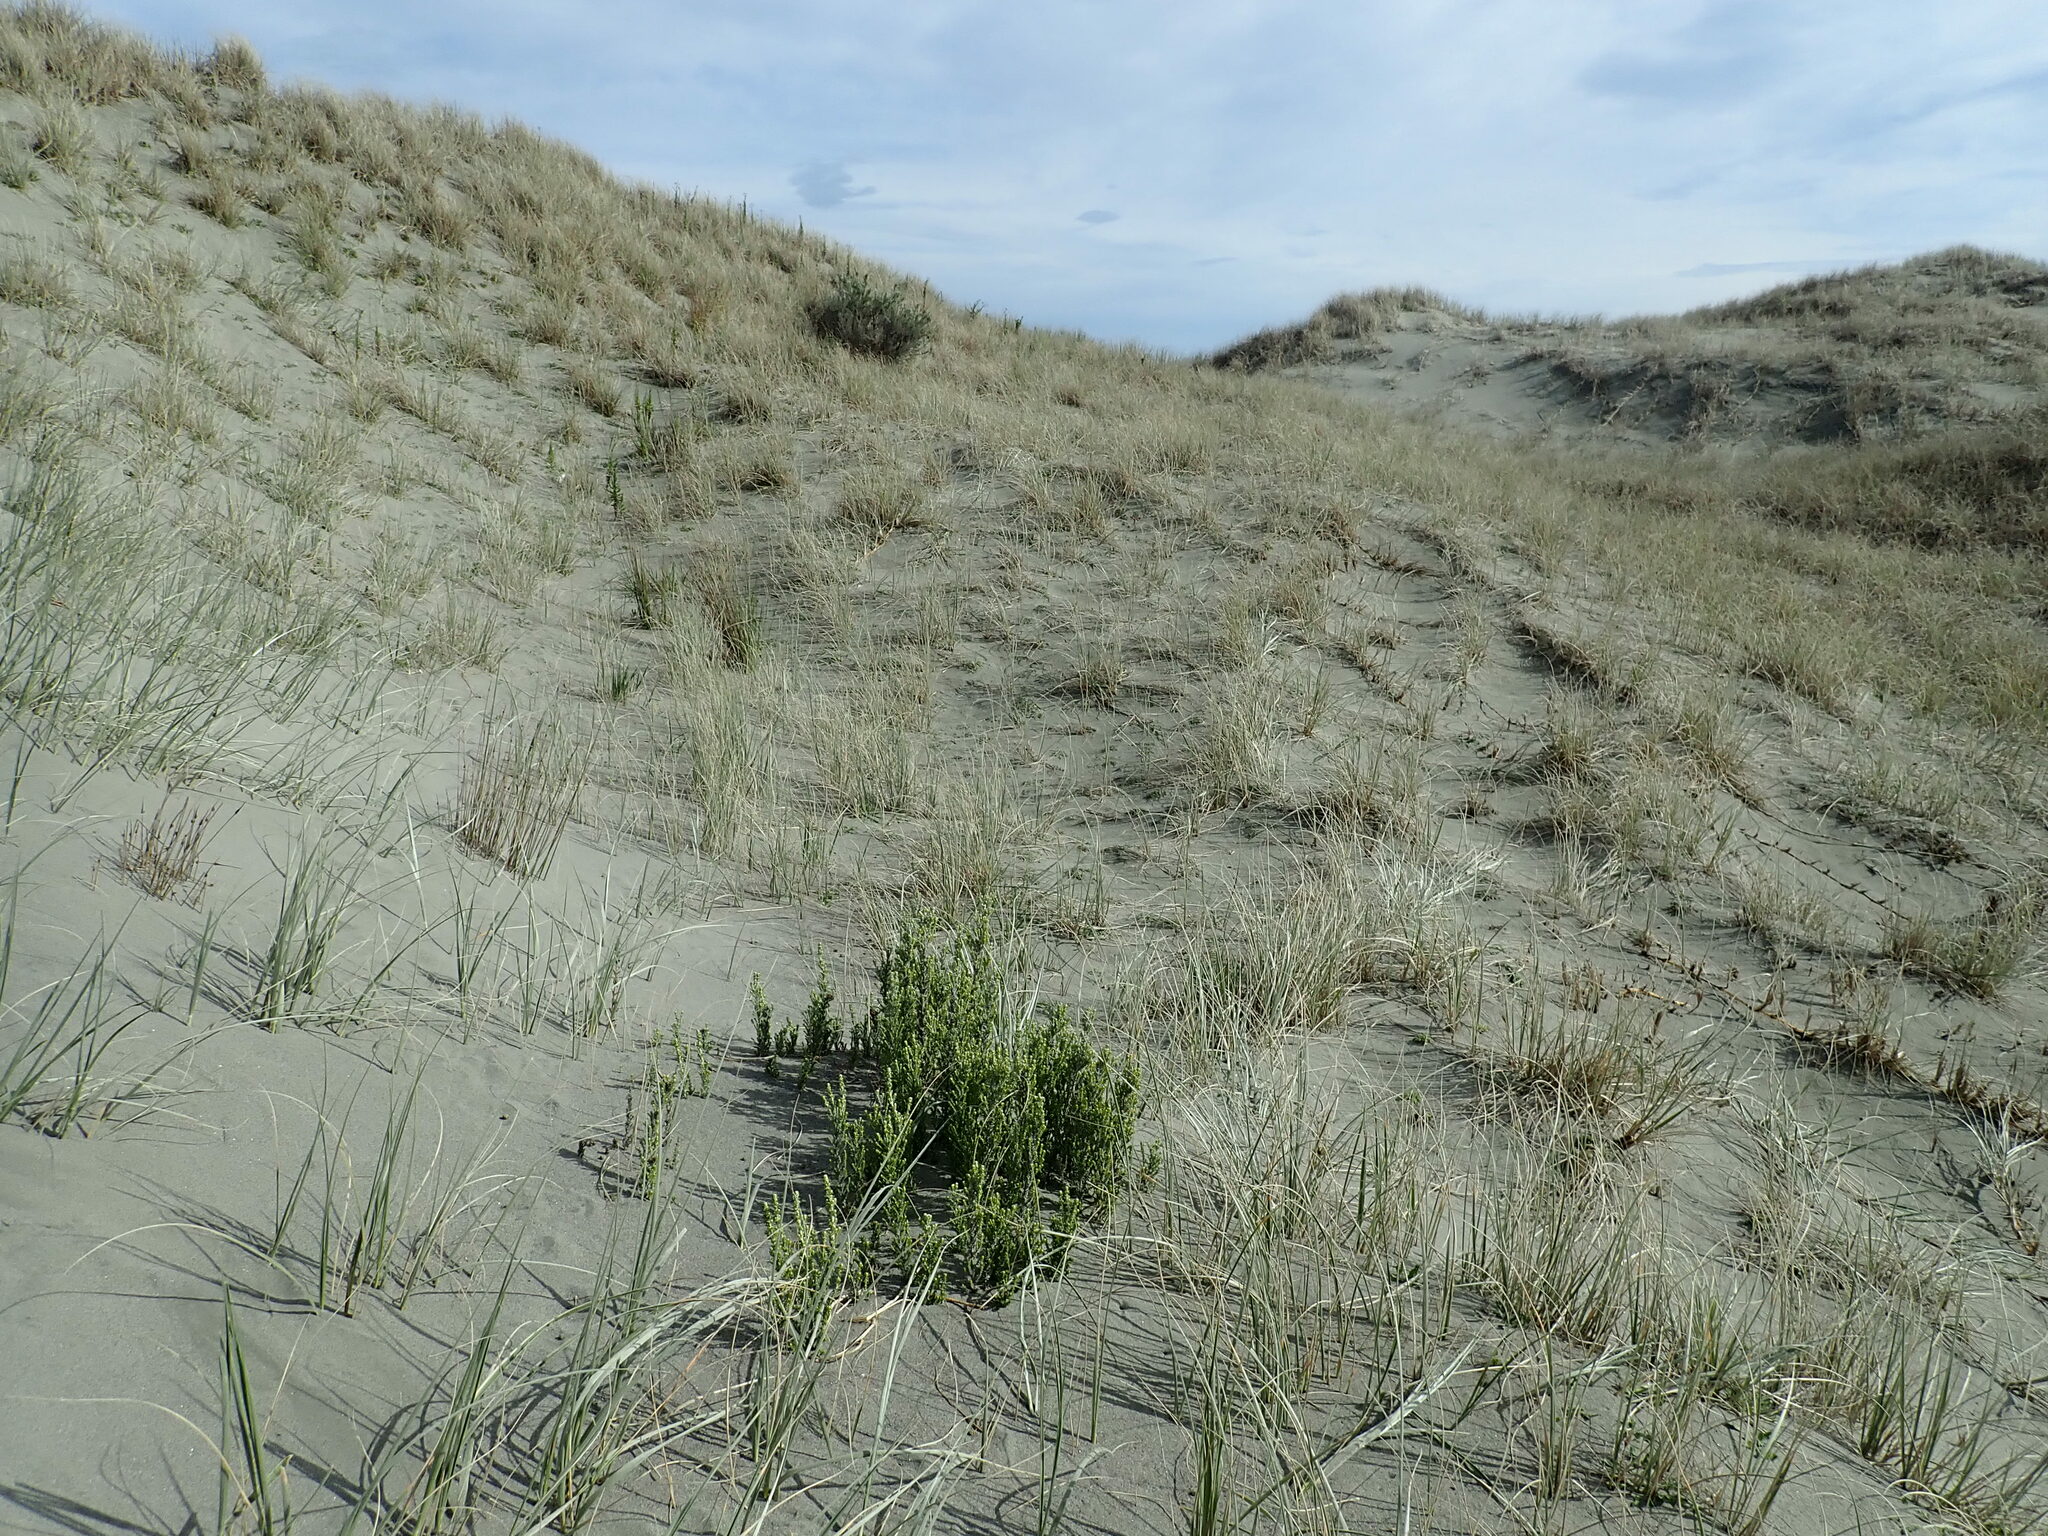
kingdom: Plantae
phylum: Tracheophyta
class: Magnoliopsida
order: Asterales
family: Asteraceae
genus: Ozothamnus
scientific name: Ozothamnus leptophyllus
